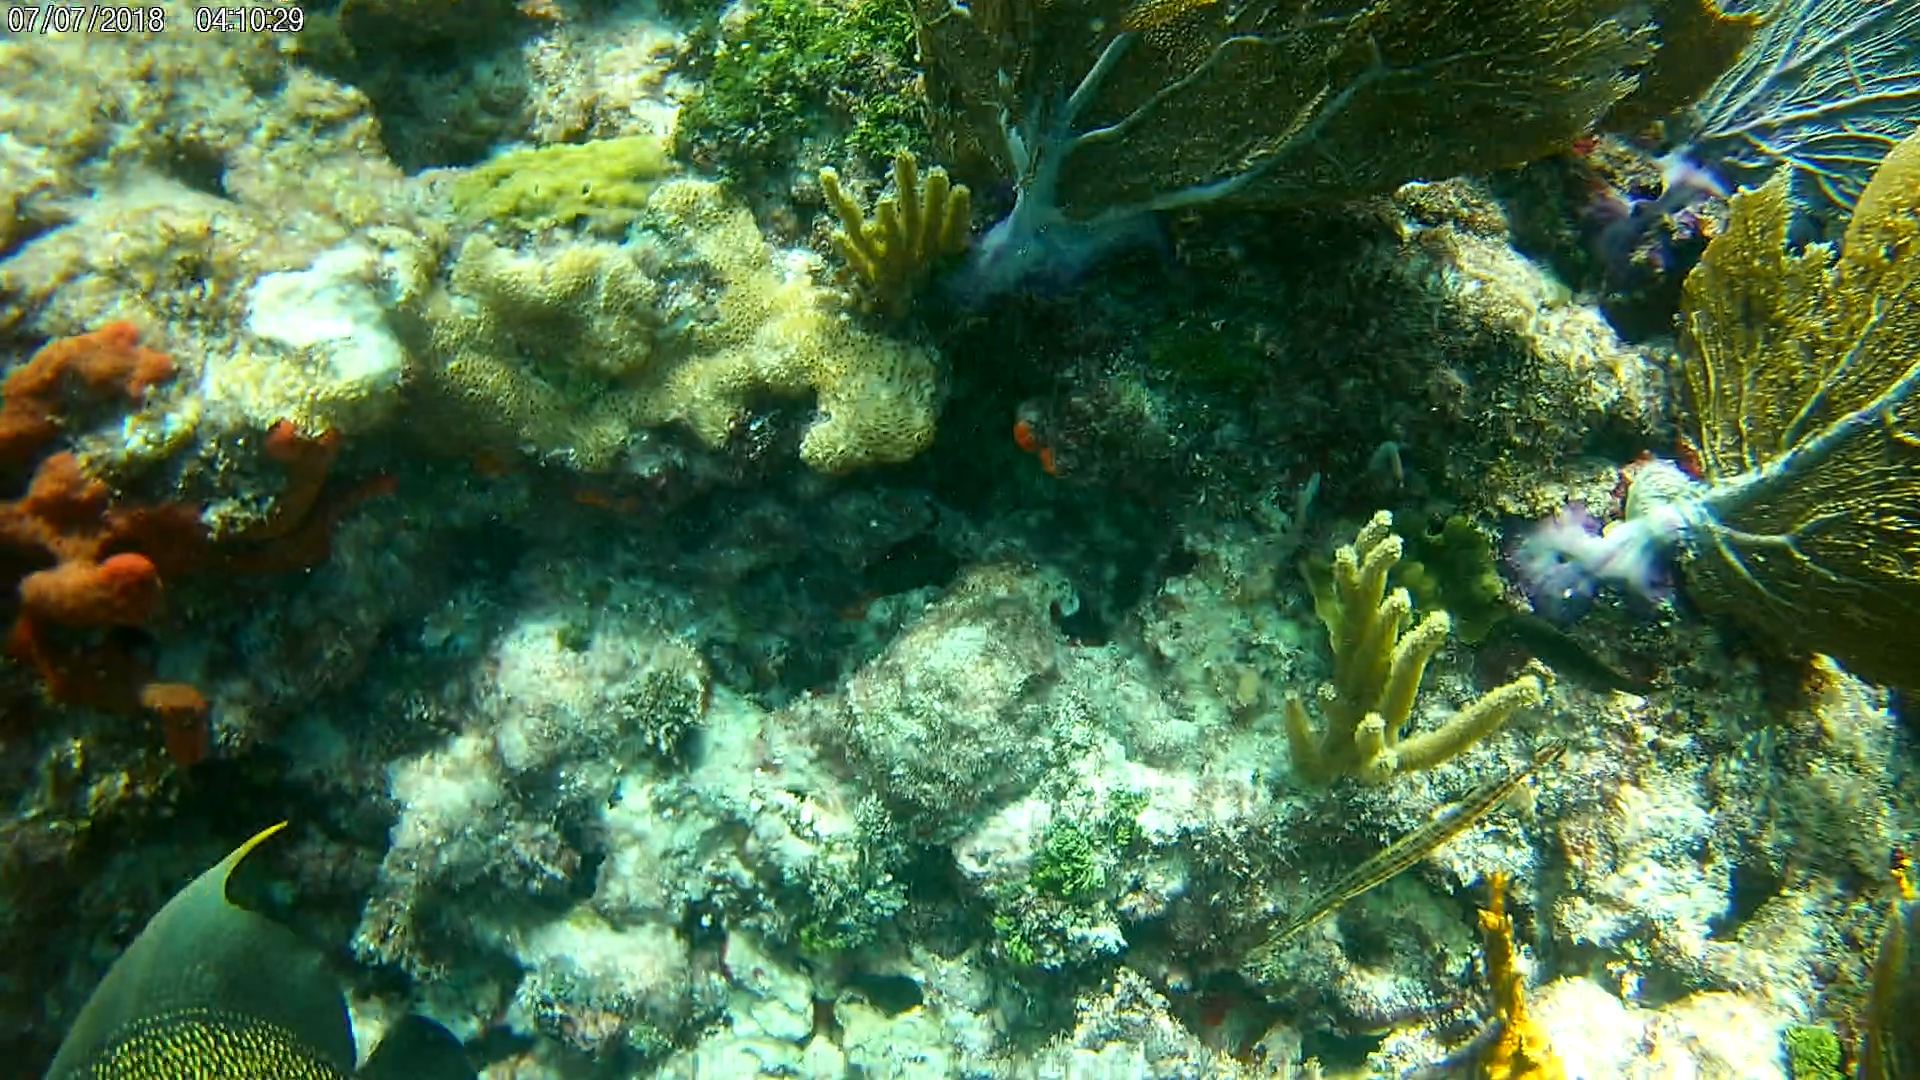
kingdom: Animalia
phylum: Chordata
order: Syngnathiformes
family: Aulostomidae
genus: Aulostomus
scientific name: Aulostomus maculatus
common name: West atlantic trumpetfish
